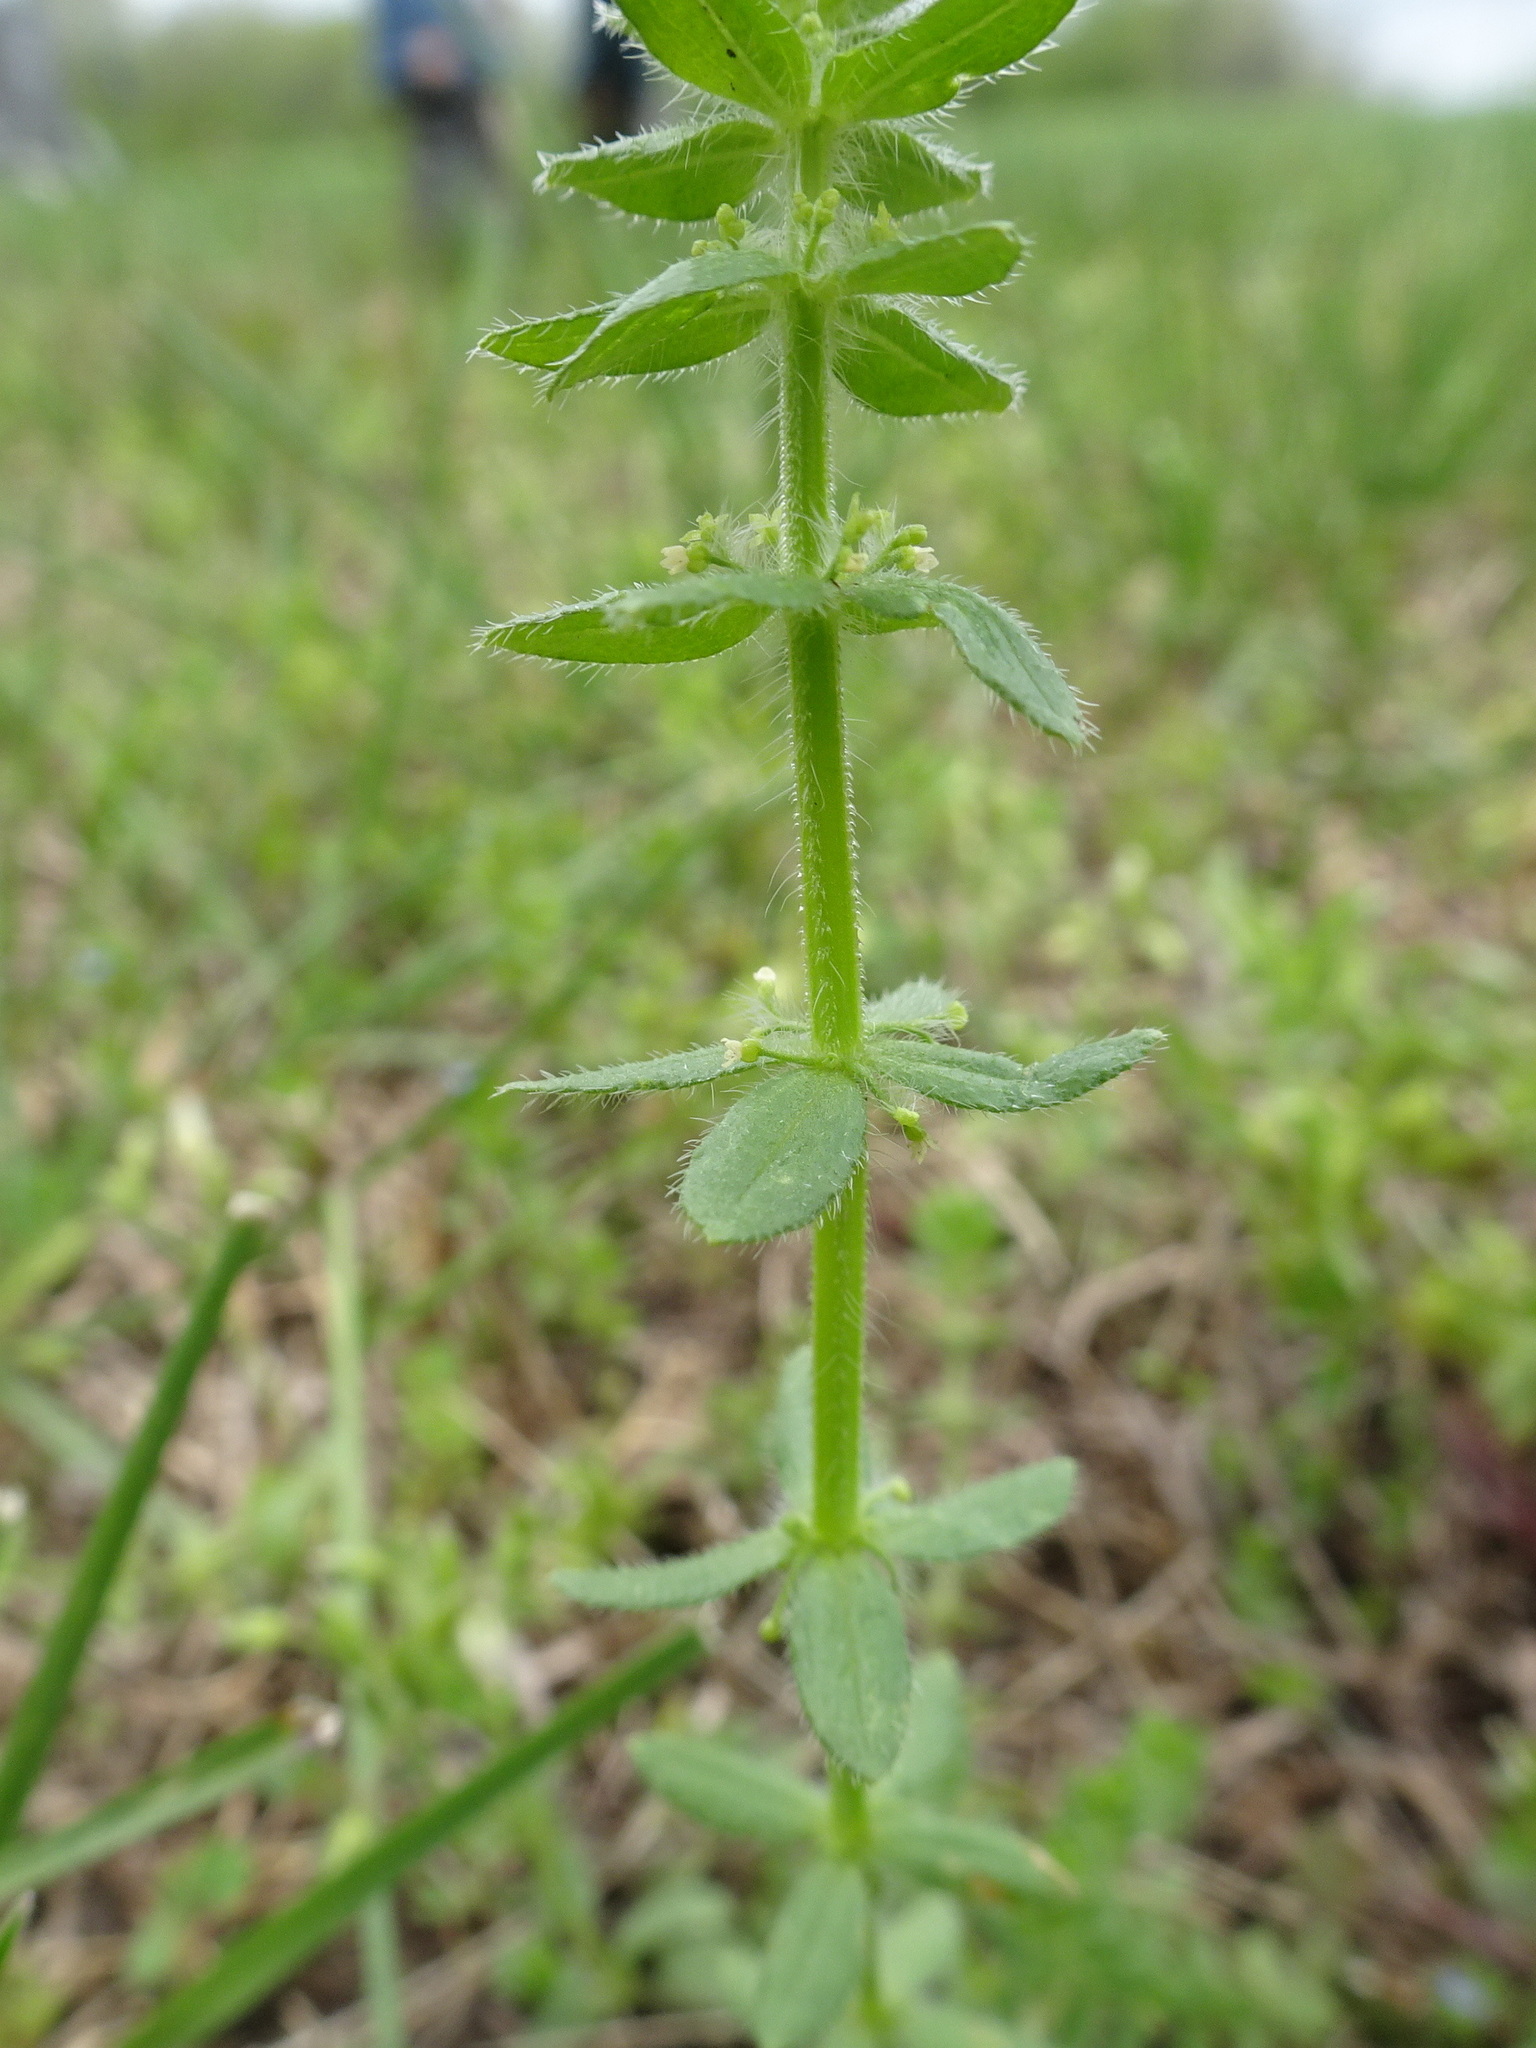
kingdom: Plantae
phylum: Tracheophyta
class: Magnoliopsida
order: Gentianales
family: Rubiaceae
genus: Cruciata
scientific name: Cruciata pedemontana
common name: Piedmont bedstraw
